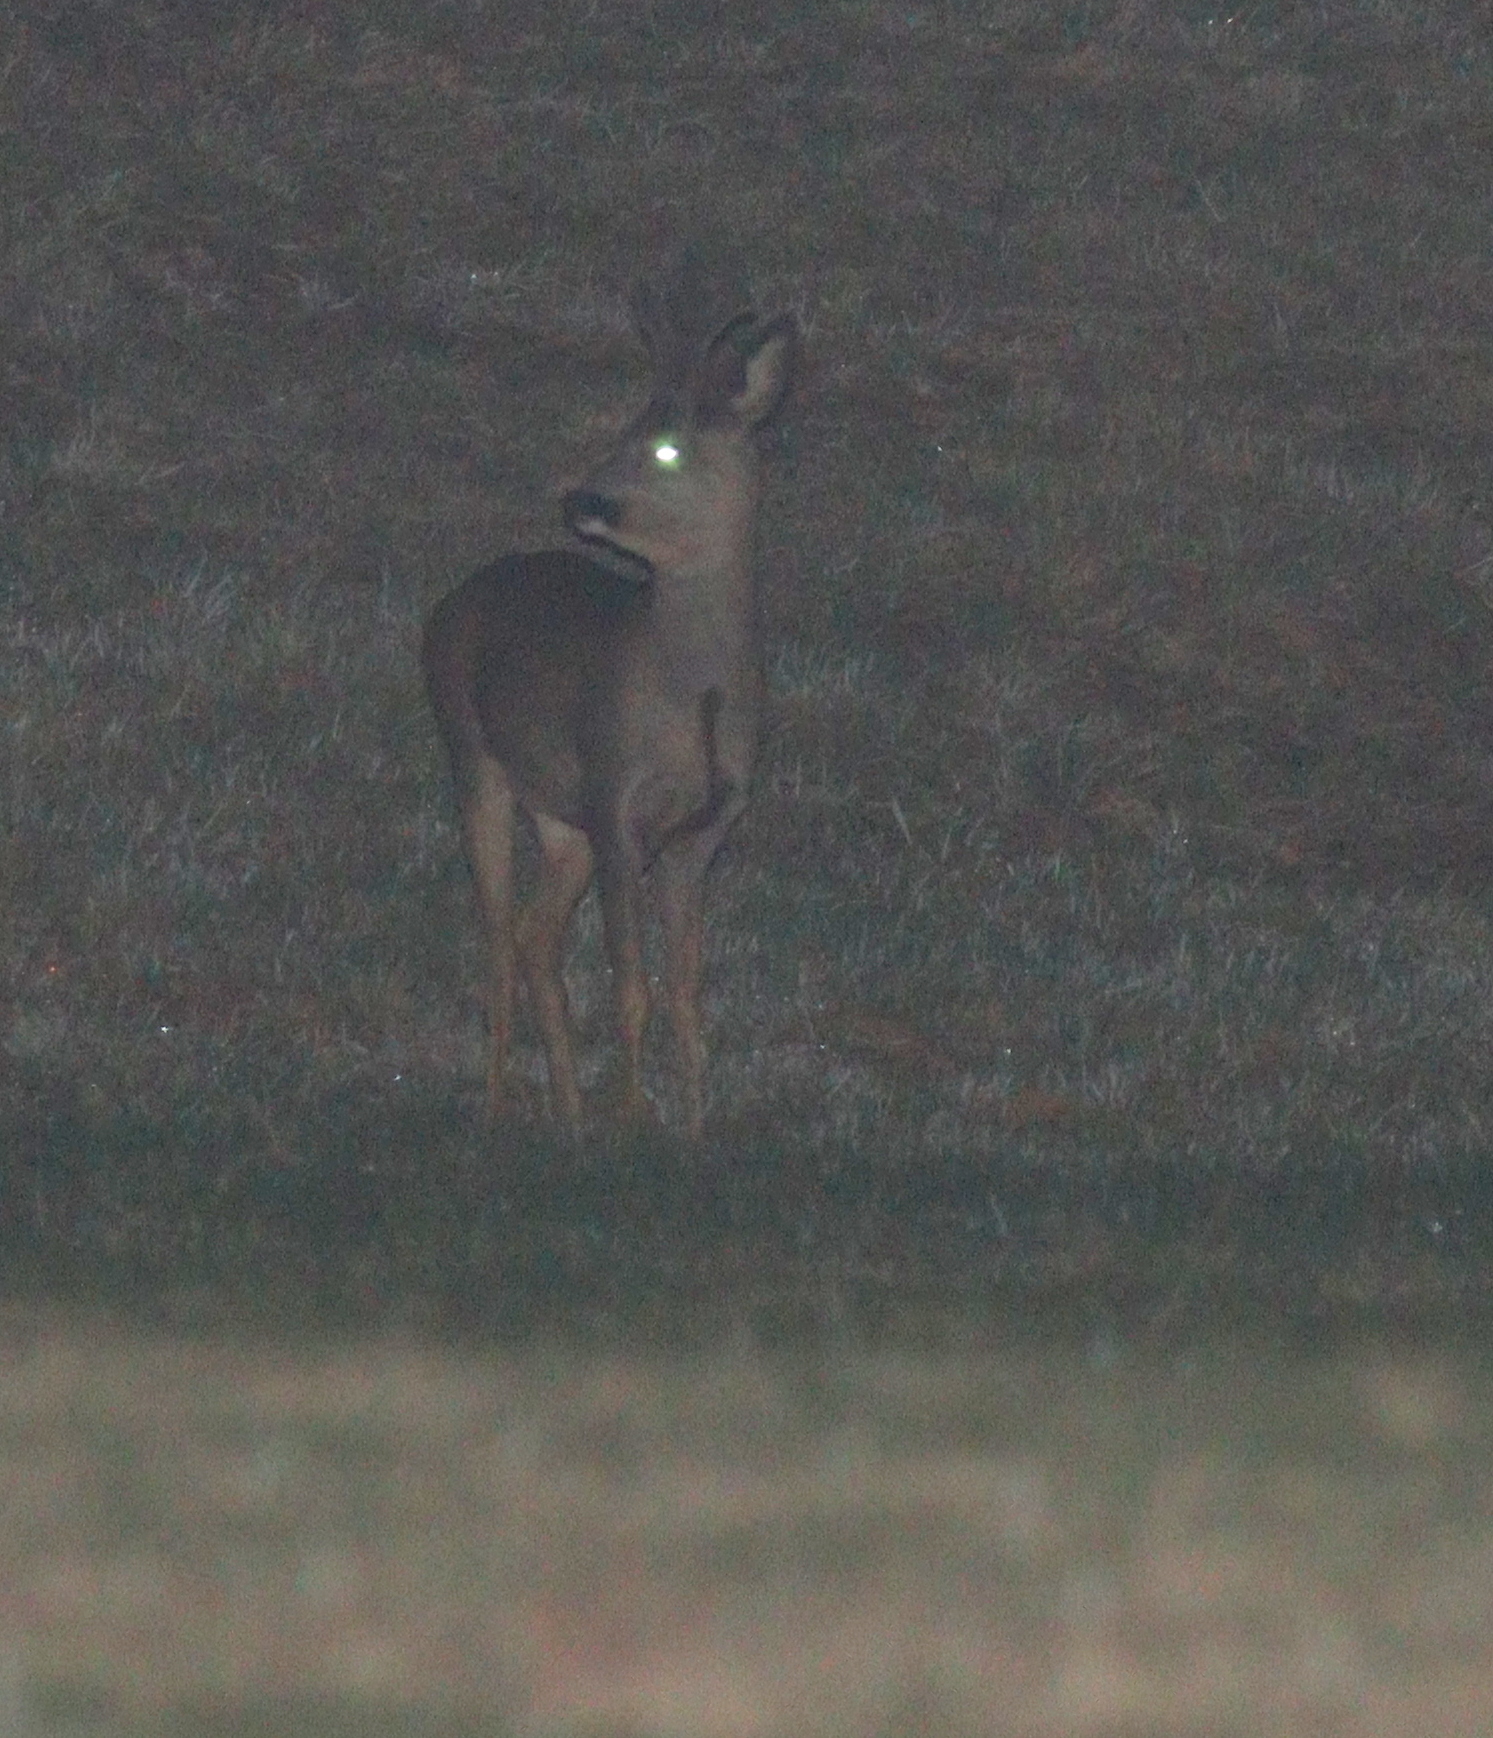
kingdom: Animalia
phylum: Chordata
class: Mammalia
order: Artiodactyla
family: Cervidae
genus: Capreolus
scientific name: Capreolus capreolus
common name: Western roe deer
